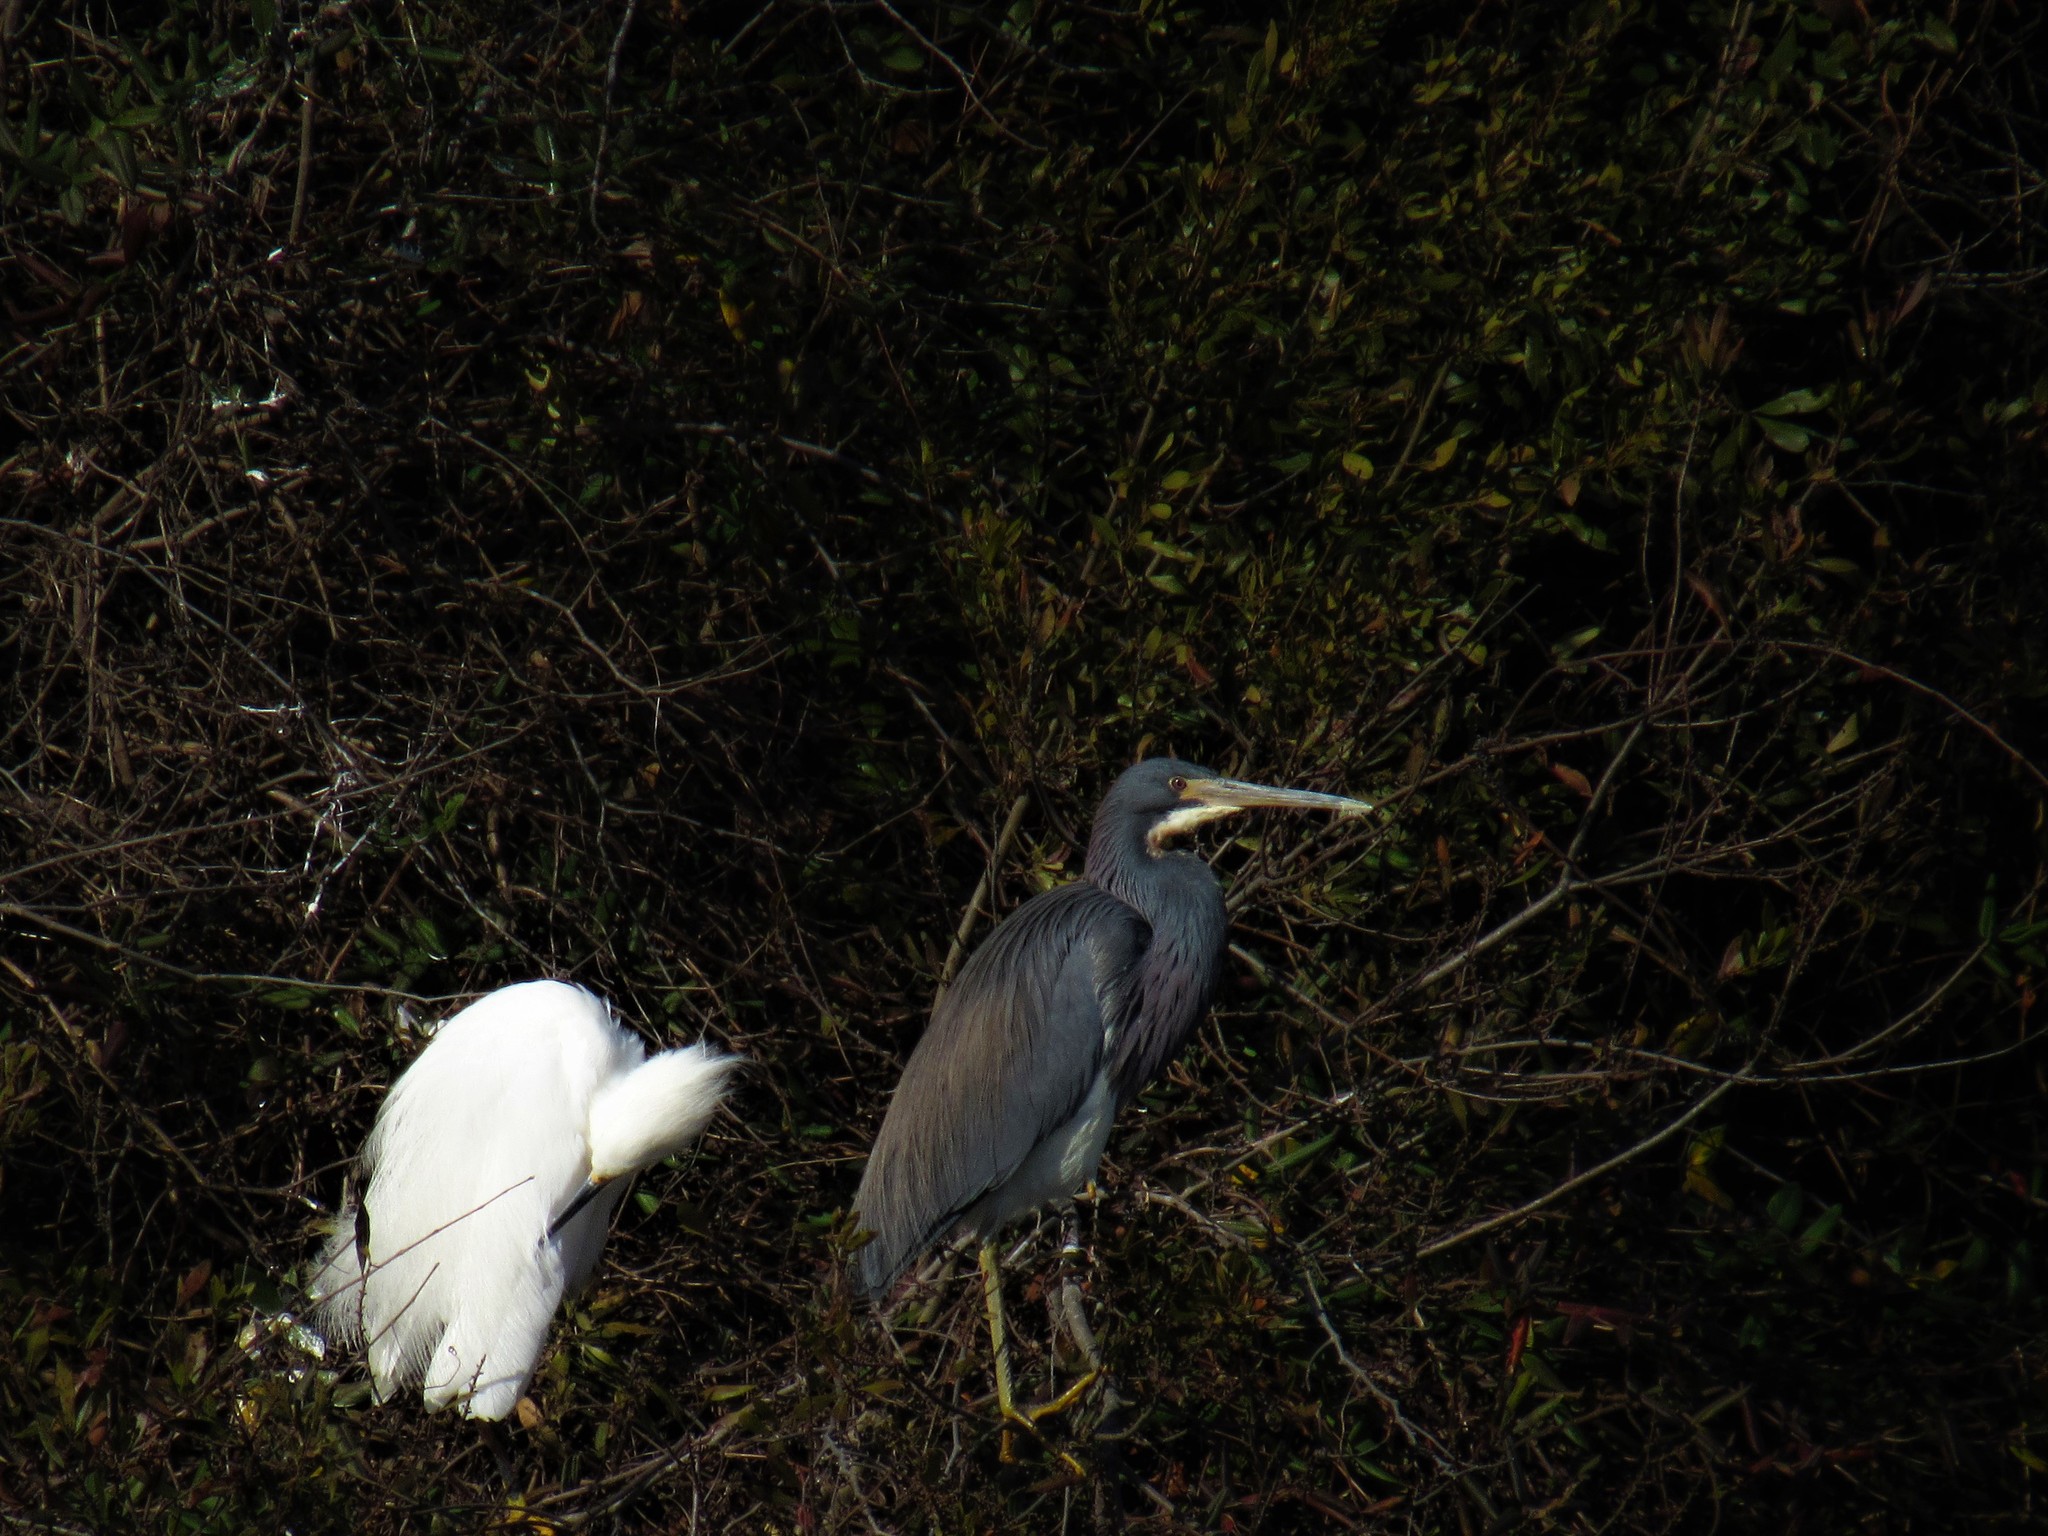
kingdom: Animalia
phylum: Chordata
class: Aves
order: Pelecaniformes
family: Ardeidae
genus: Egretta
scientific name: Egretta tricolor
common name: Tricolored heron
